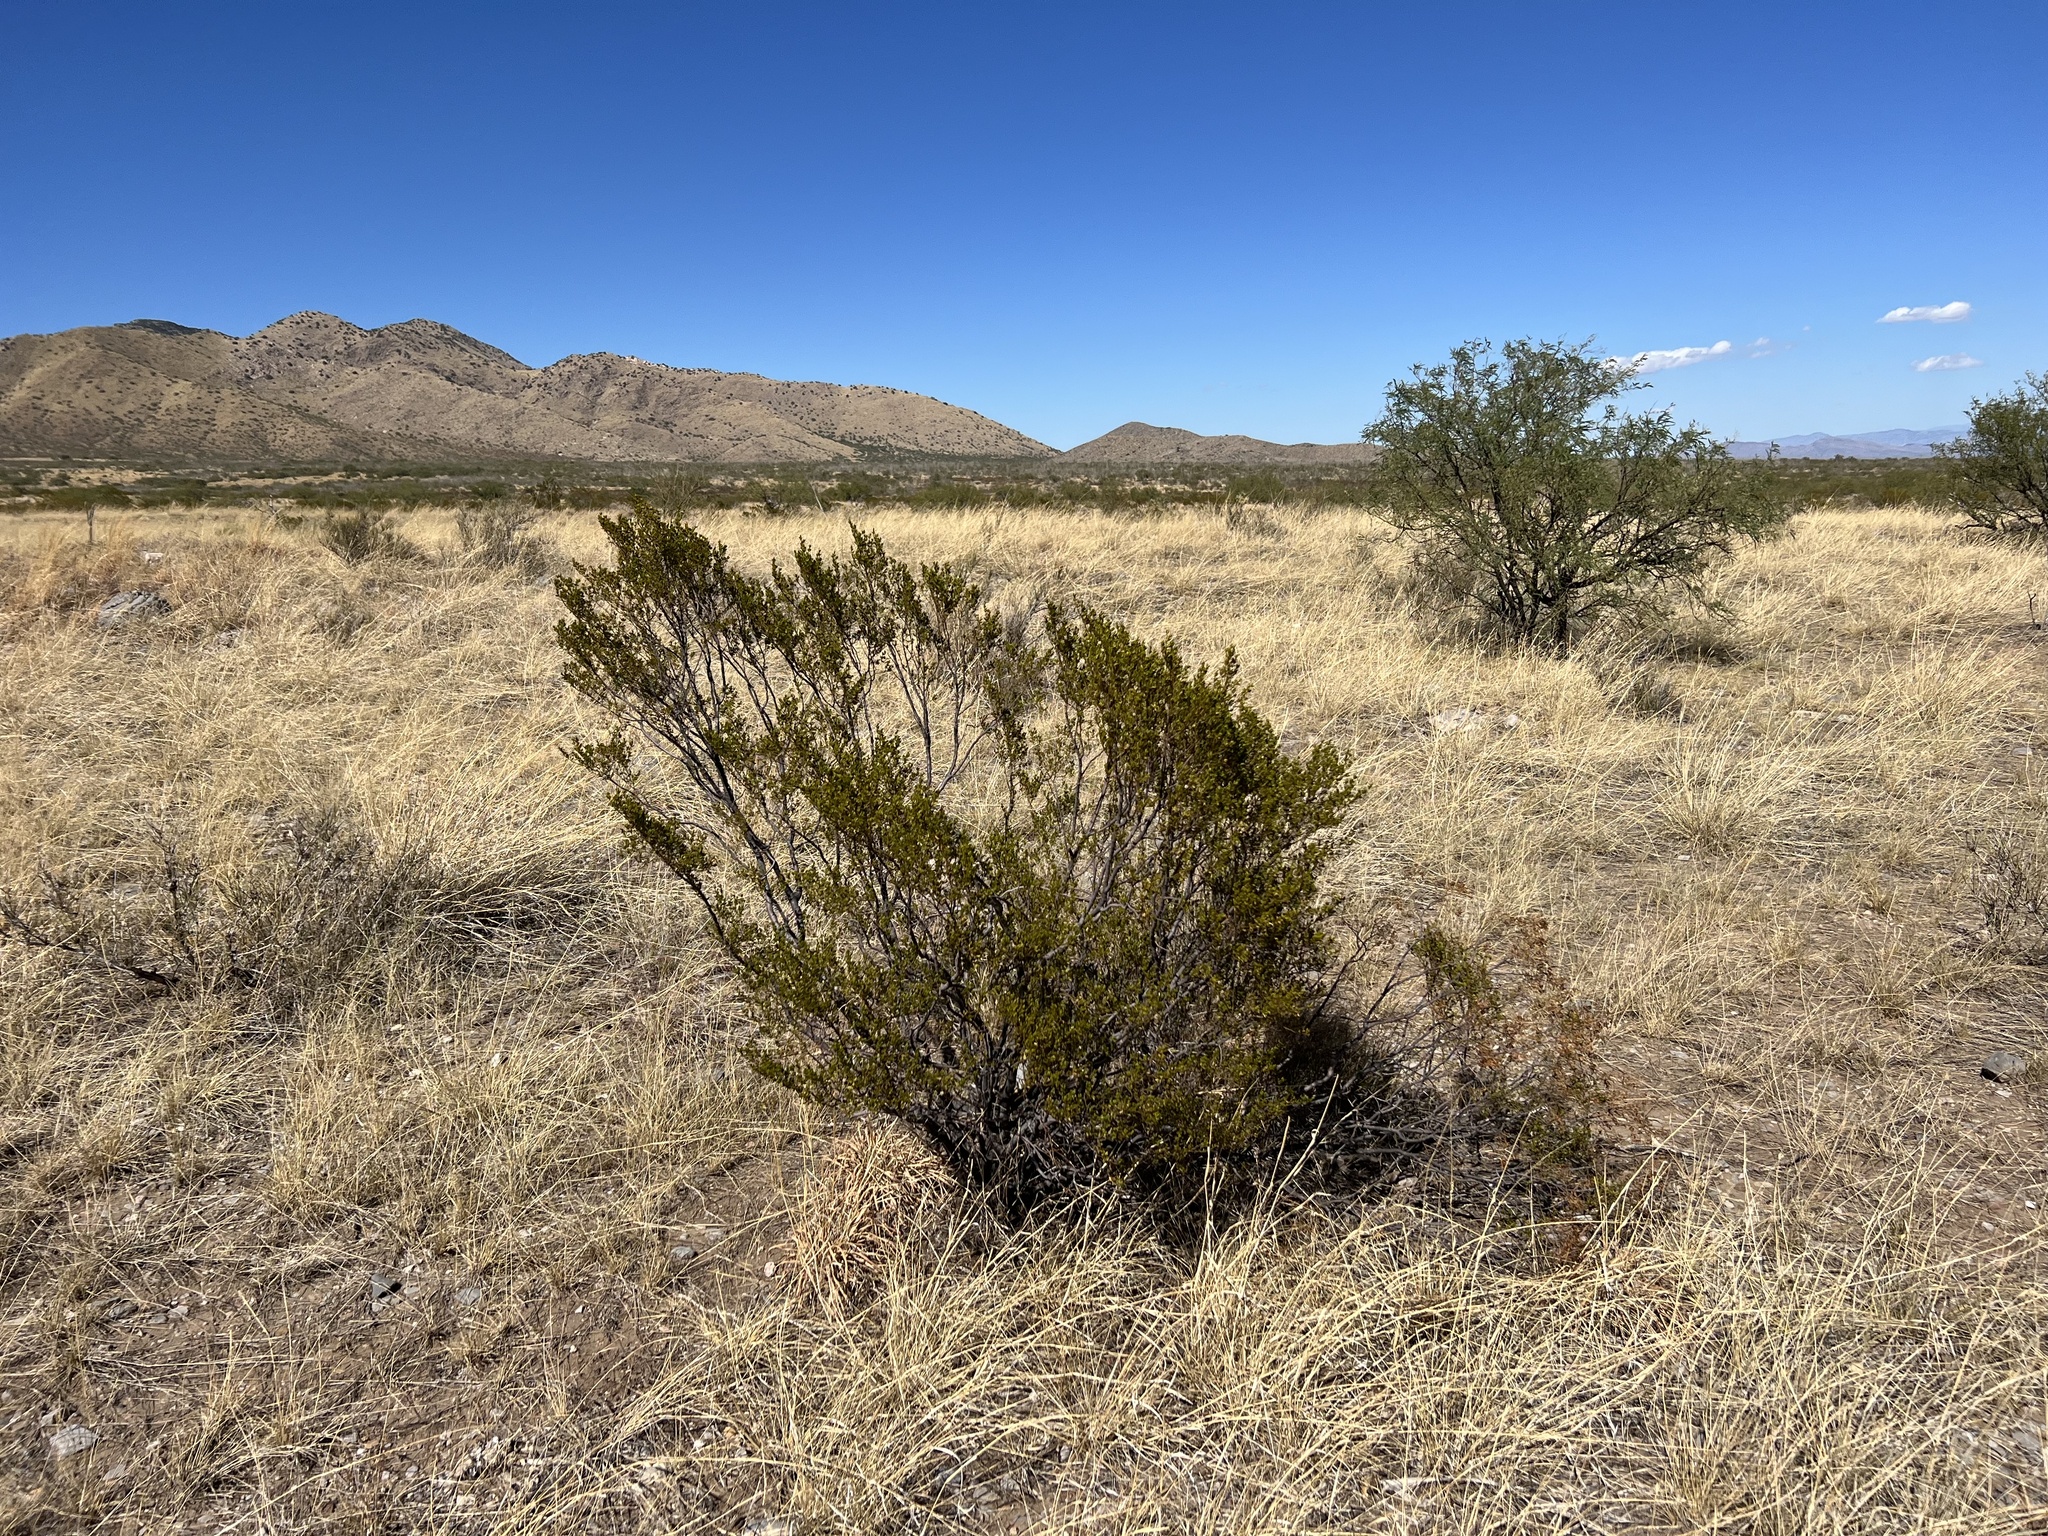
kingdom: Plantae
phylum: Tracheophyta
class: Magnoliopsida
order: Zygophyllales
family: Zygophyllaceae
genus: Larrea
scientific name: Larrea tridentata
